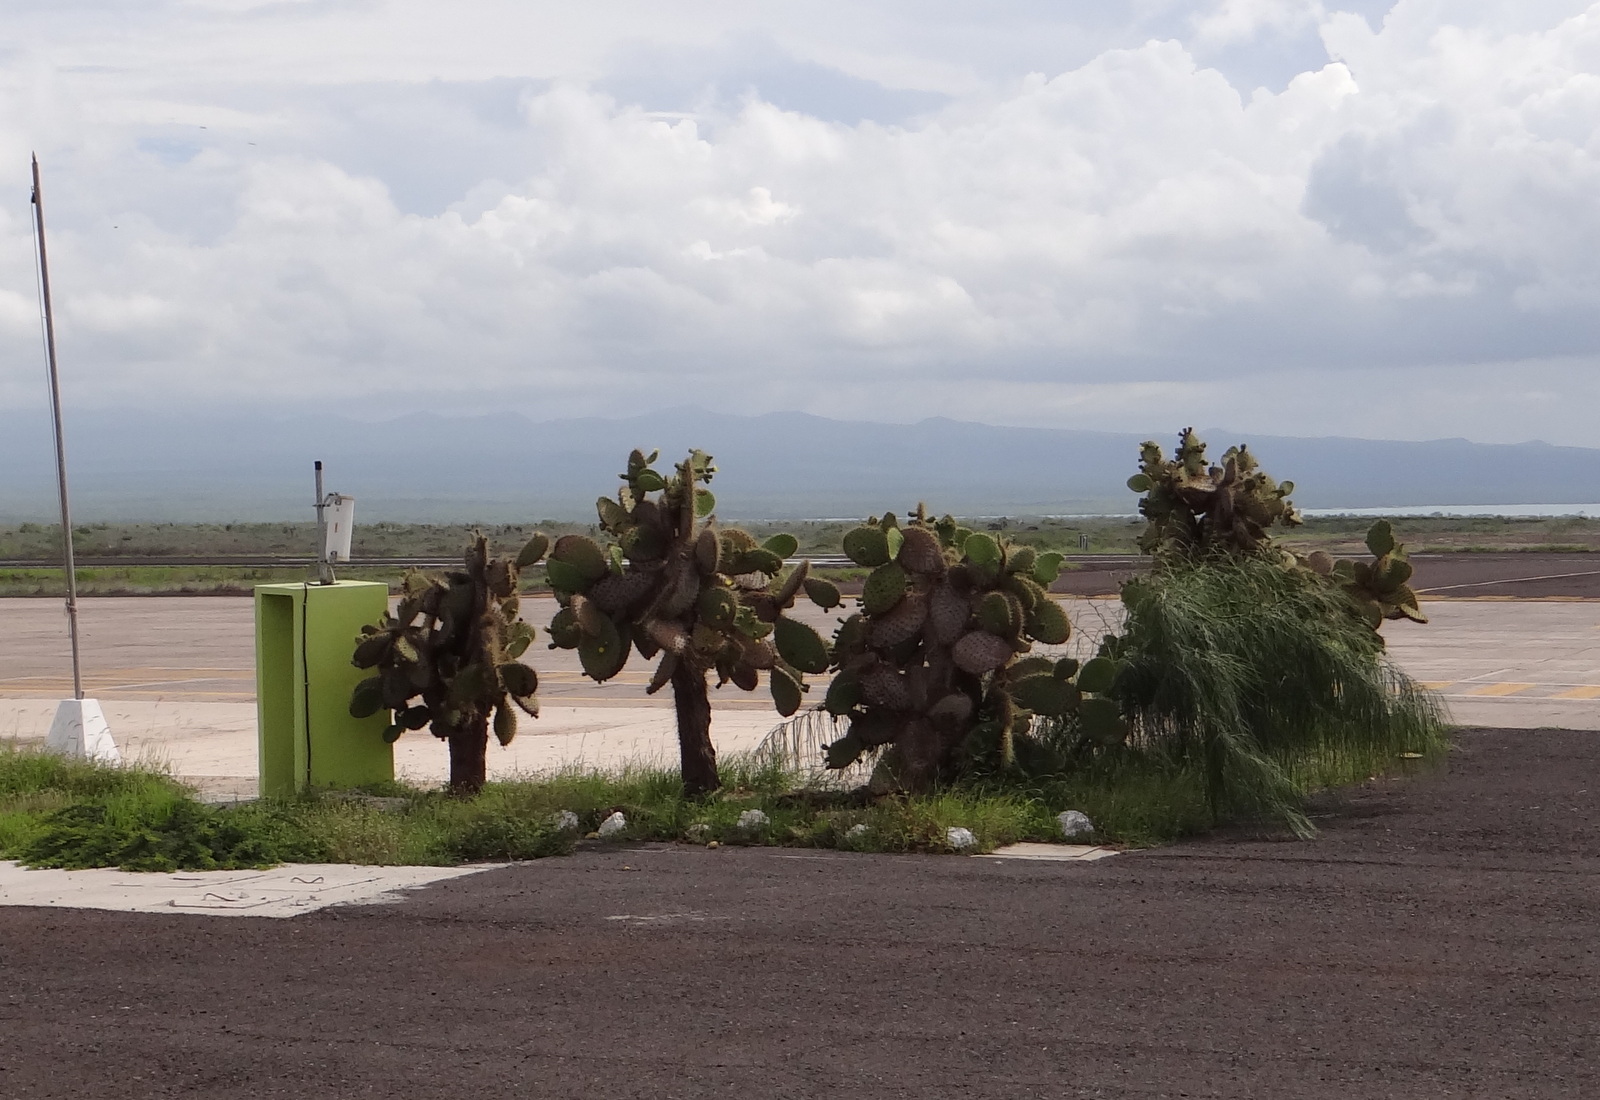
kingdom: Plantae
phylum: Tracheophyta
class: Magnoliopsida
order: Caryophyllales
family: Cactaceae
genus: Opuntia
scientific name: Opuntia galapageia
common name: Galápagos prickly pear
